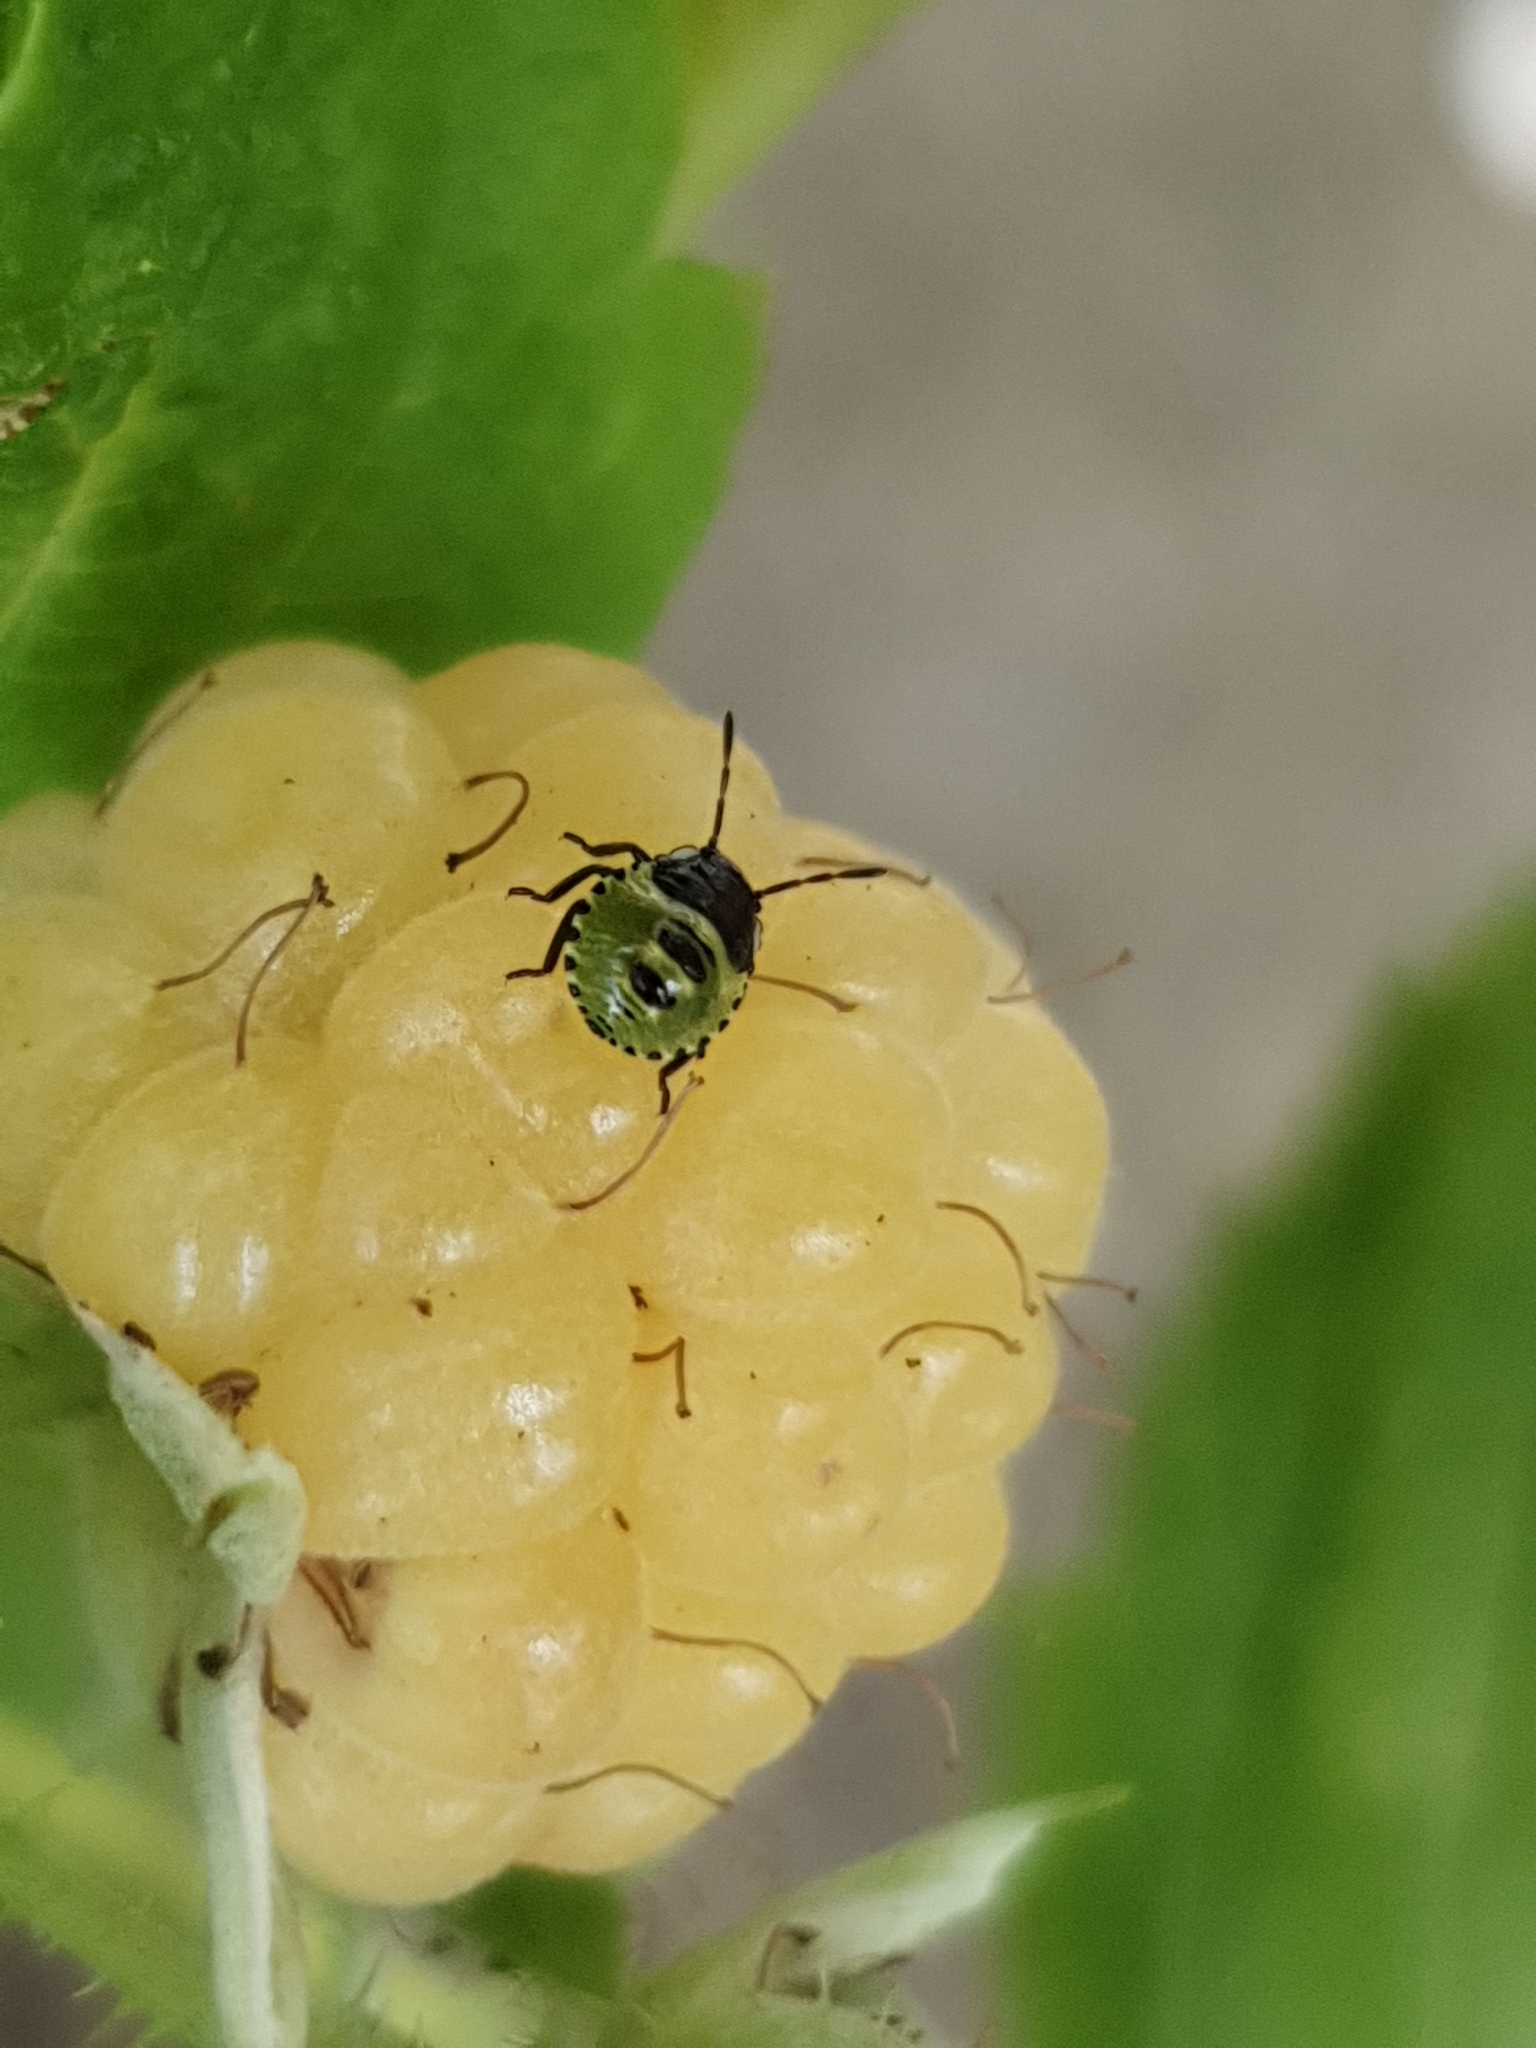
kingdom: Animalia
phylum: Arthropoda
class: Insecta
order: Hemiptera
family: Pentatomidae
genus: Palomena
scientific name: Palomena prasina
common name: Green shieldbug
